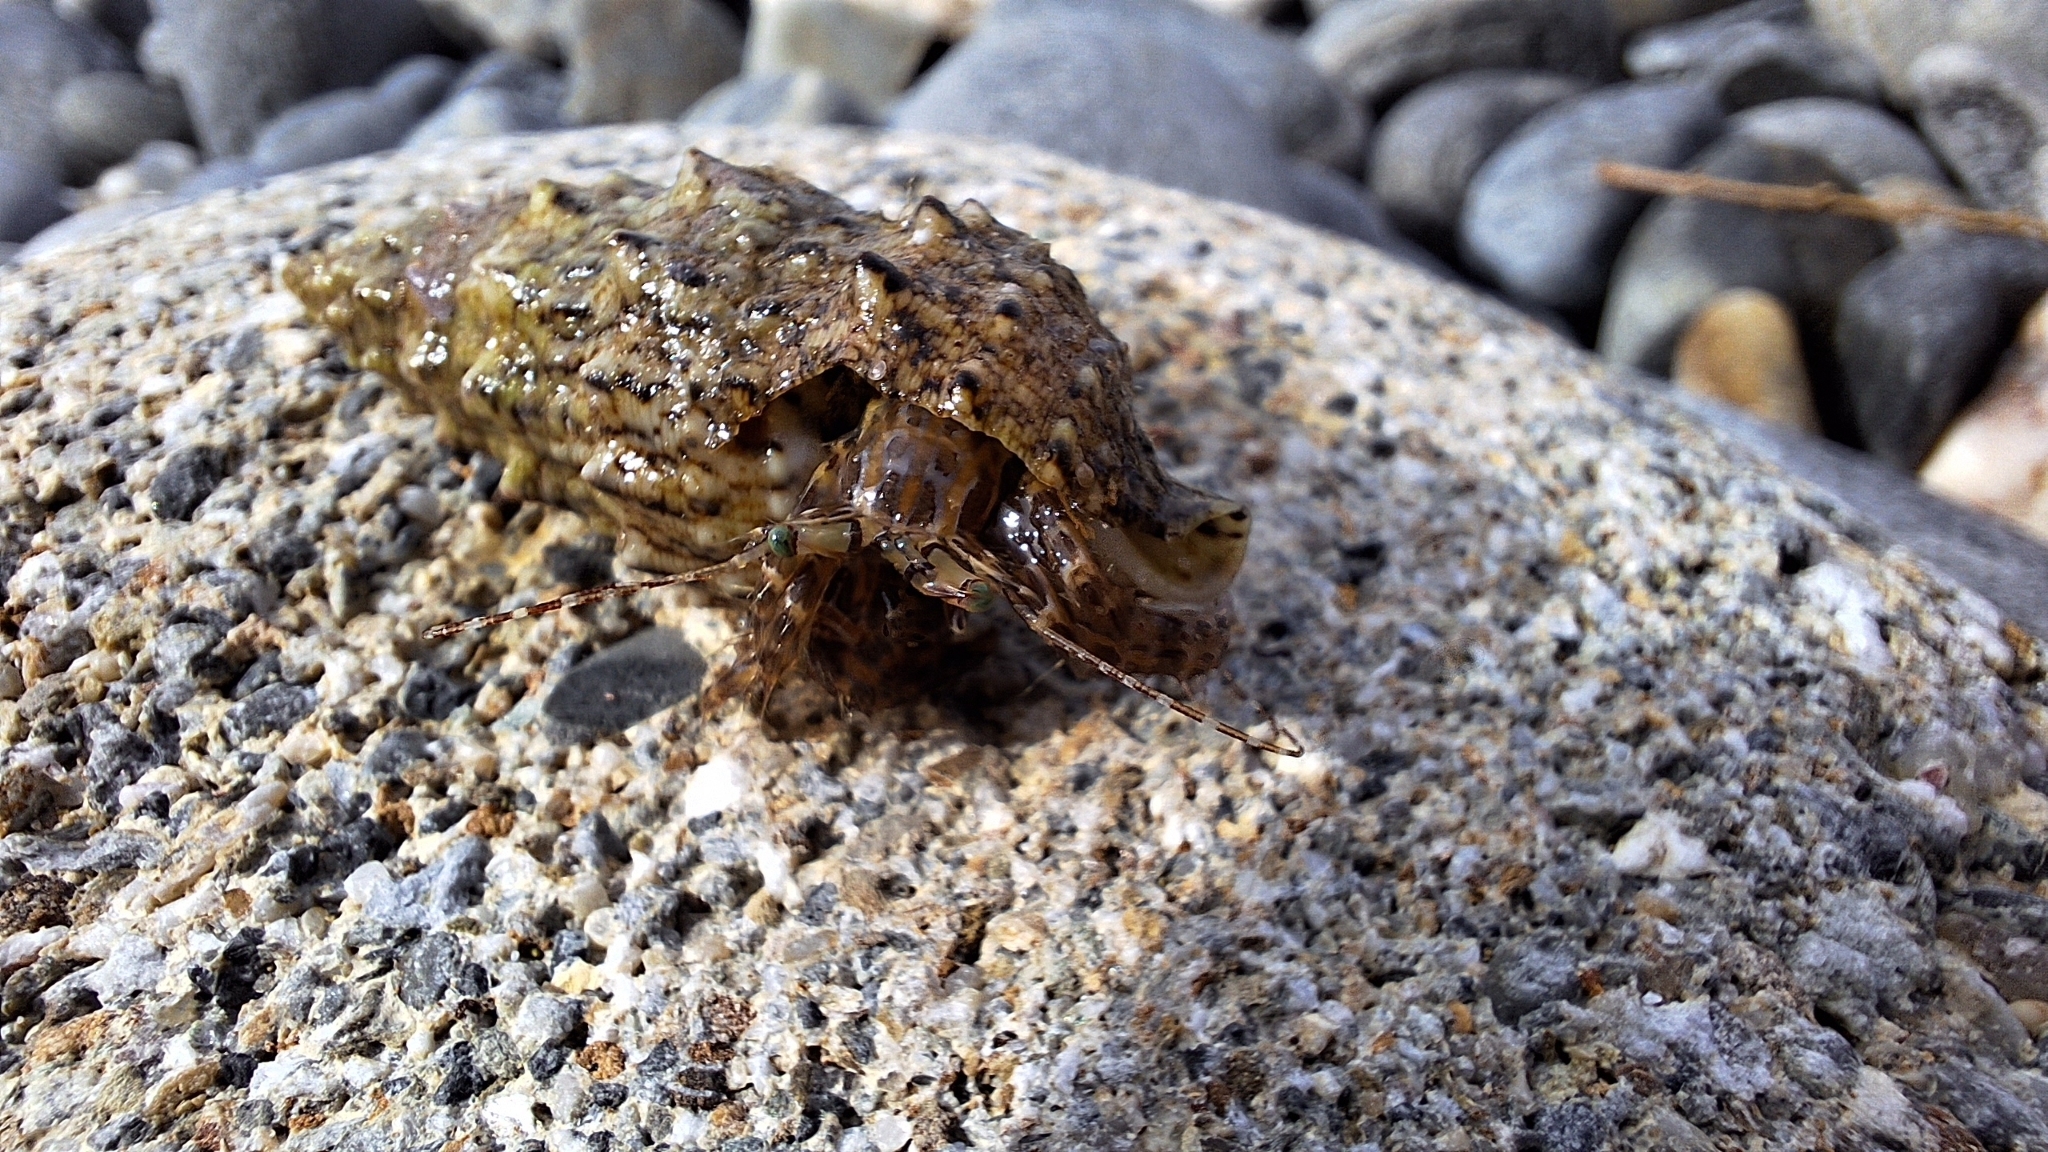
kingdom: Animalia
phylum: Arthropoda
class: Malacostraca
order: Decapoda
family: Paguridae
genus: Pagurus
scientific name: Pagurus anachoretus
